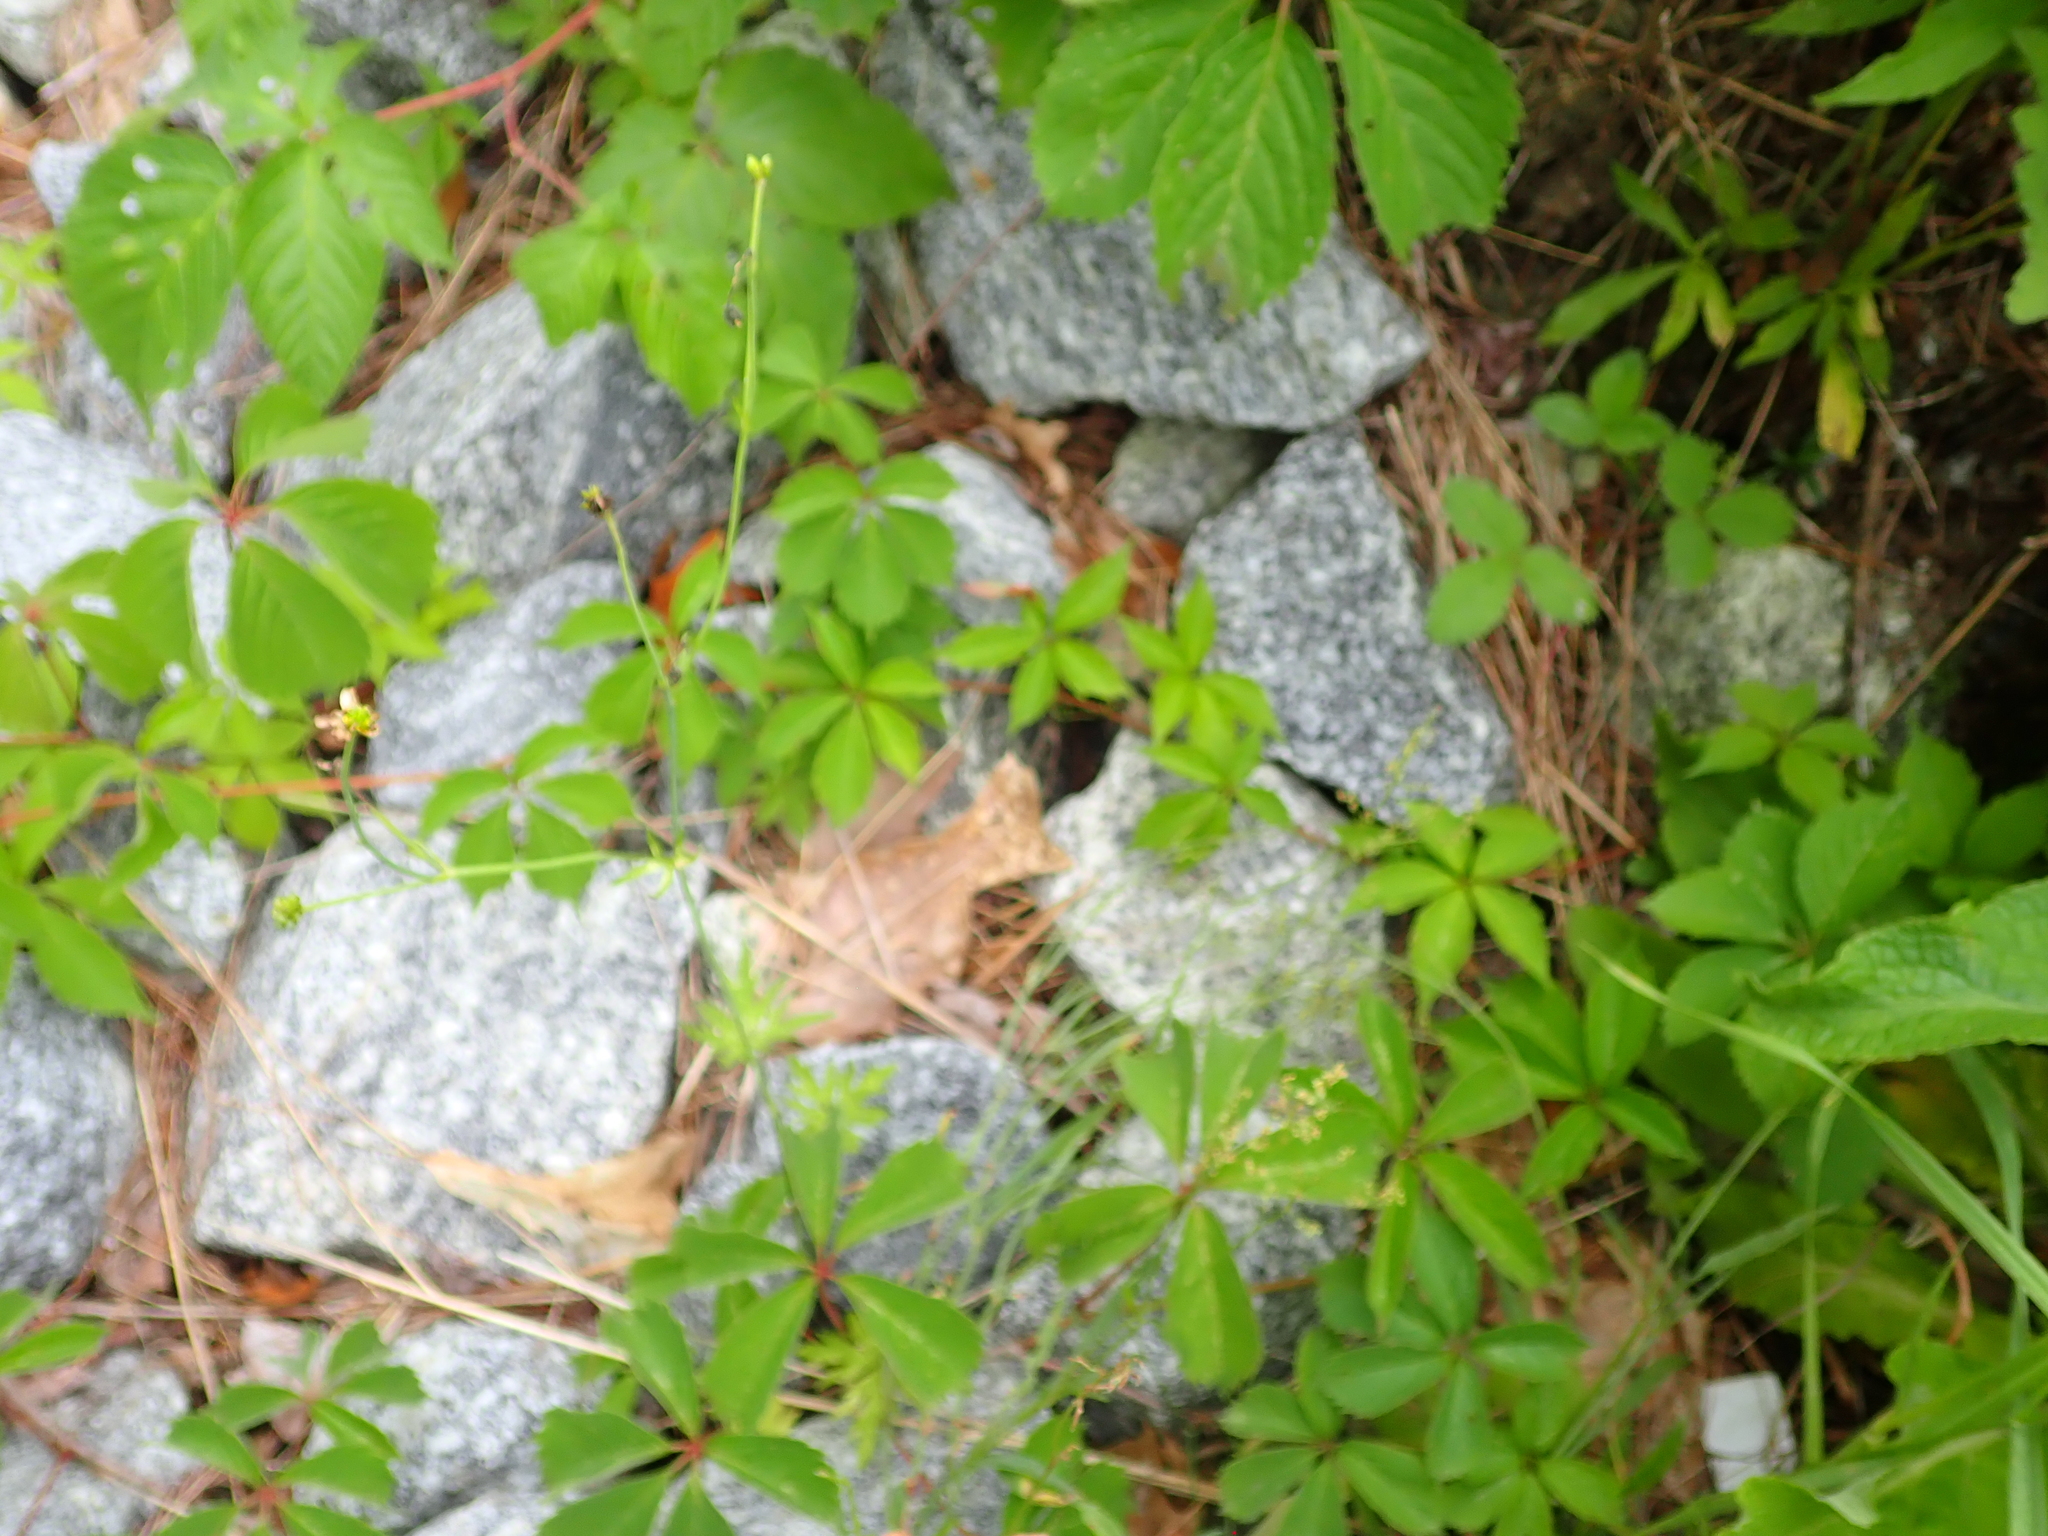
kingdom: Plantae
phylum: Tracheophyta
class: Magnoliopsida
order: Vitales
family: Vitaceae
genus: Parthenocissus
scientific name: Parthenocissus quinquefolia
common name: Virginia-creeper
